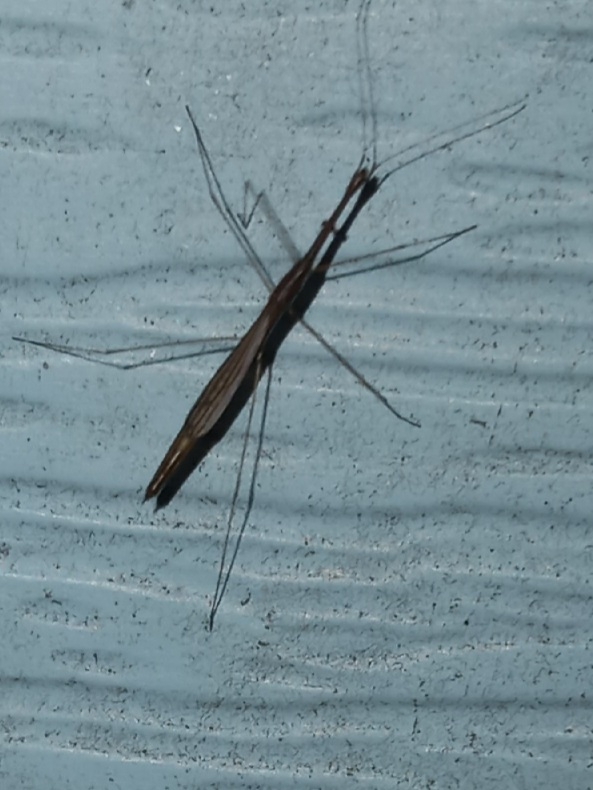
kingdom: Animalia
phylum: Arthropoda
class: Insecta
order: Hemiptera
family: Hydrometridae
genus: Hydrometra
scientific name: Hydrometra
